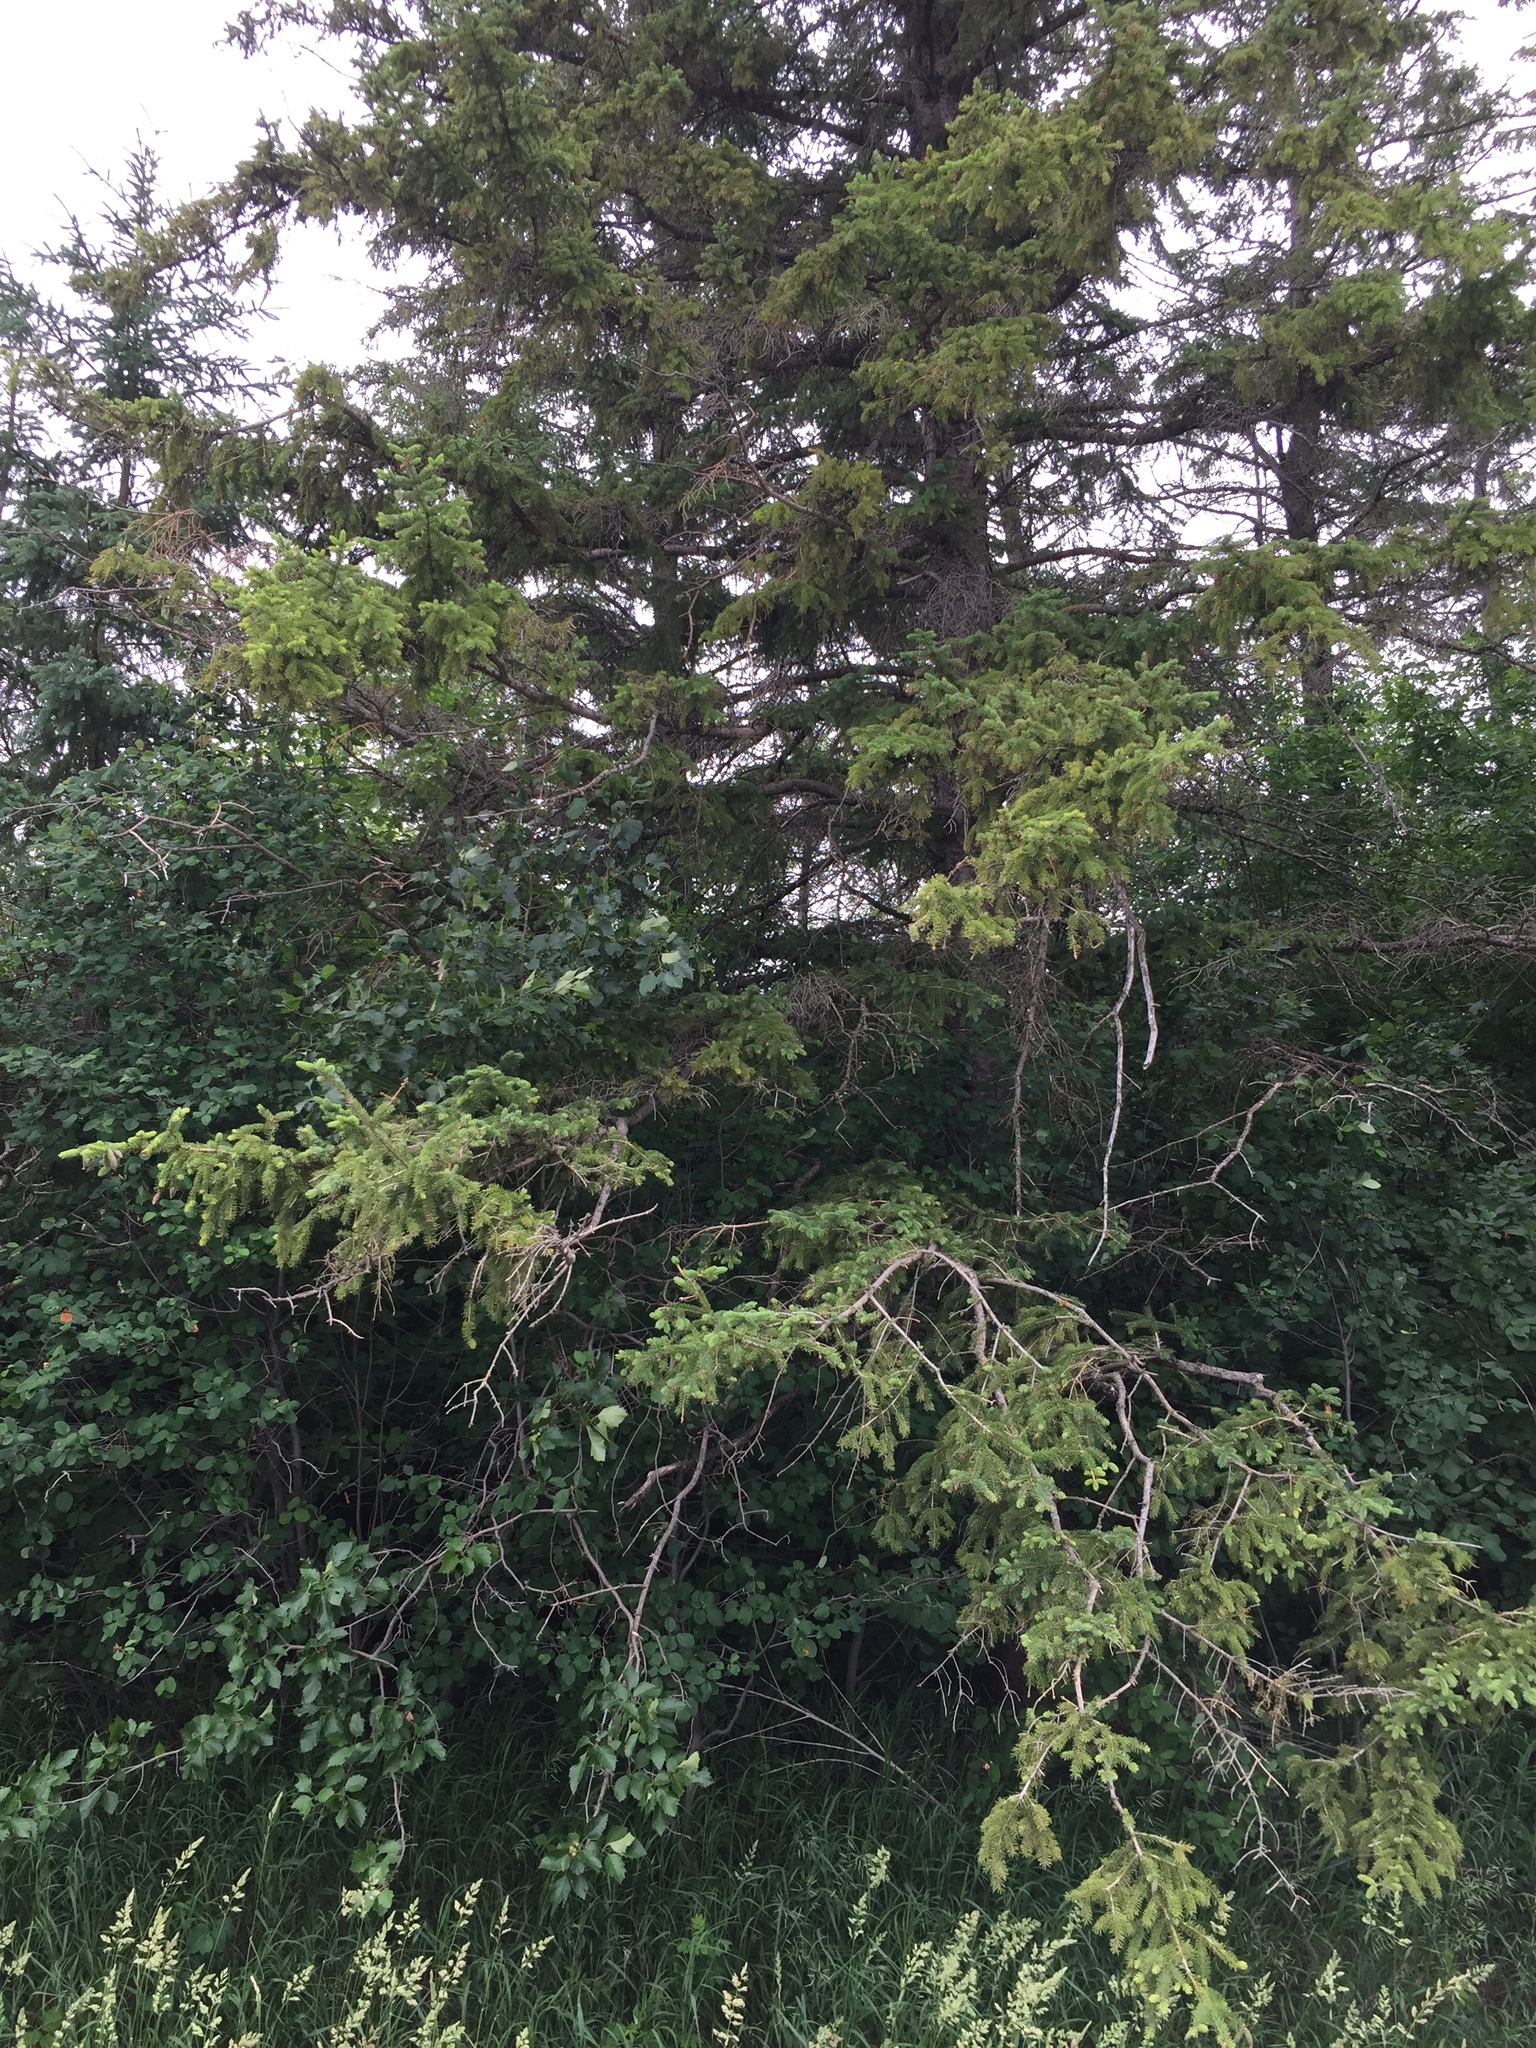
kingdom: Plantae
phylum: Tracheophyta
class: Pinopsida
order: Pinales
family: Pinaceae
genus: Picea
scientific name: Picea glauca
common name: White spruce
